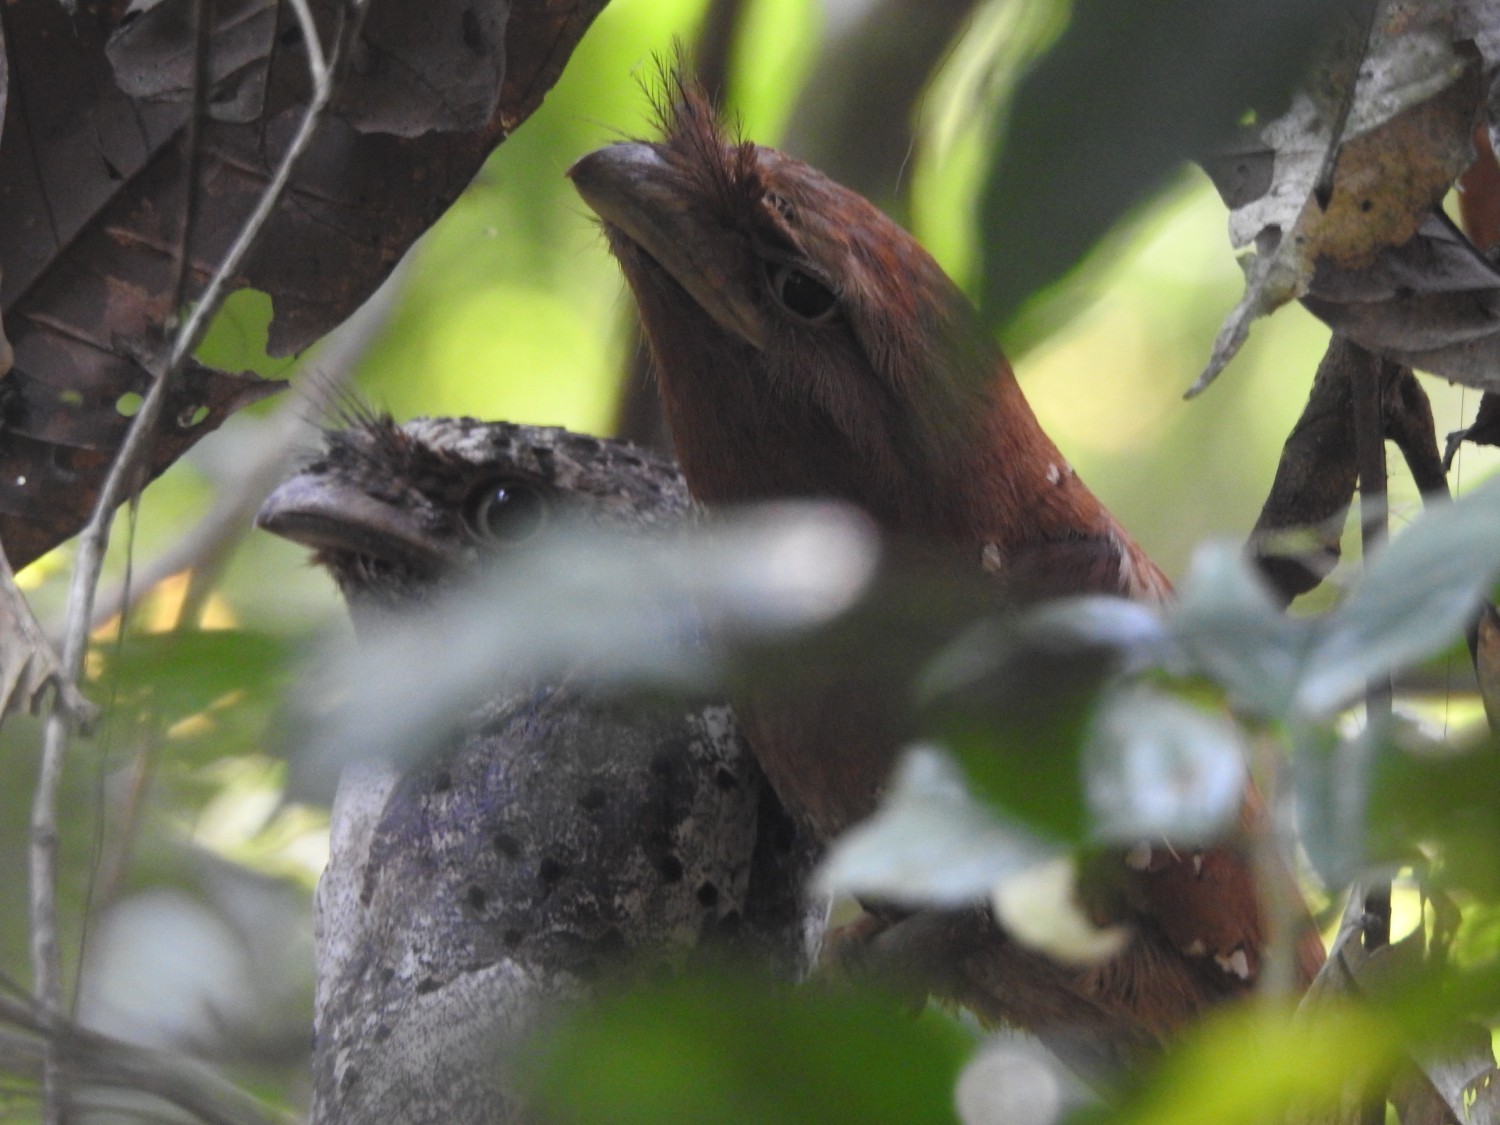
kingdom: Animalia
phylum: Chordata
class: Aves
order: Caprimulgiformes
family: Podargidae
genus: Batrachostomus
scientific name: Batrachostomus moniliger
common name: Sri lanka frogmouth
